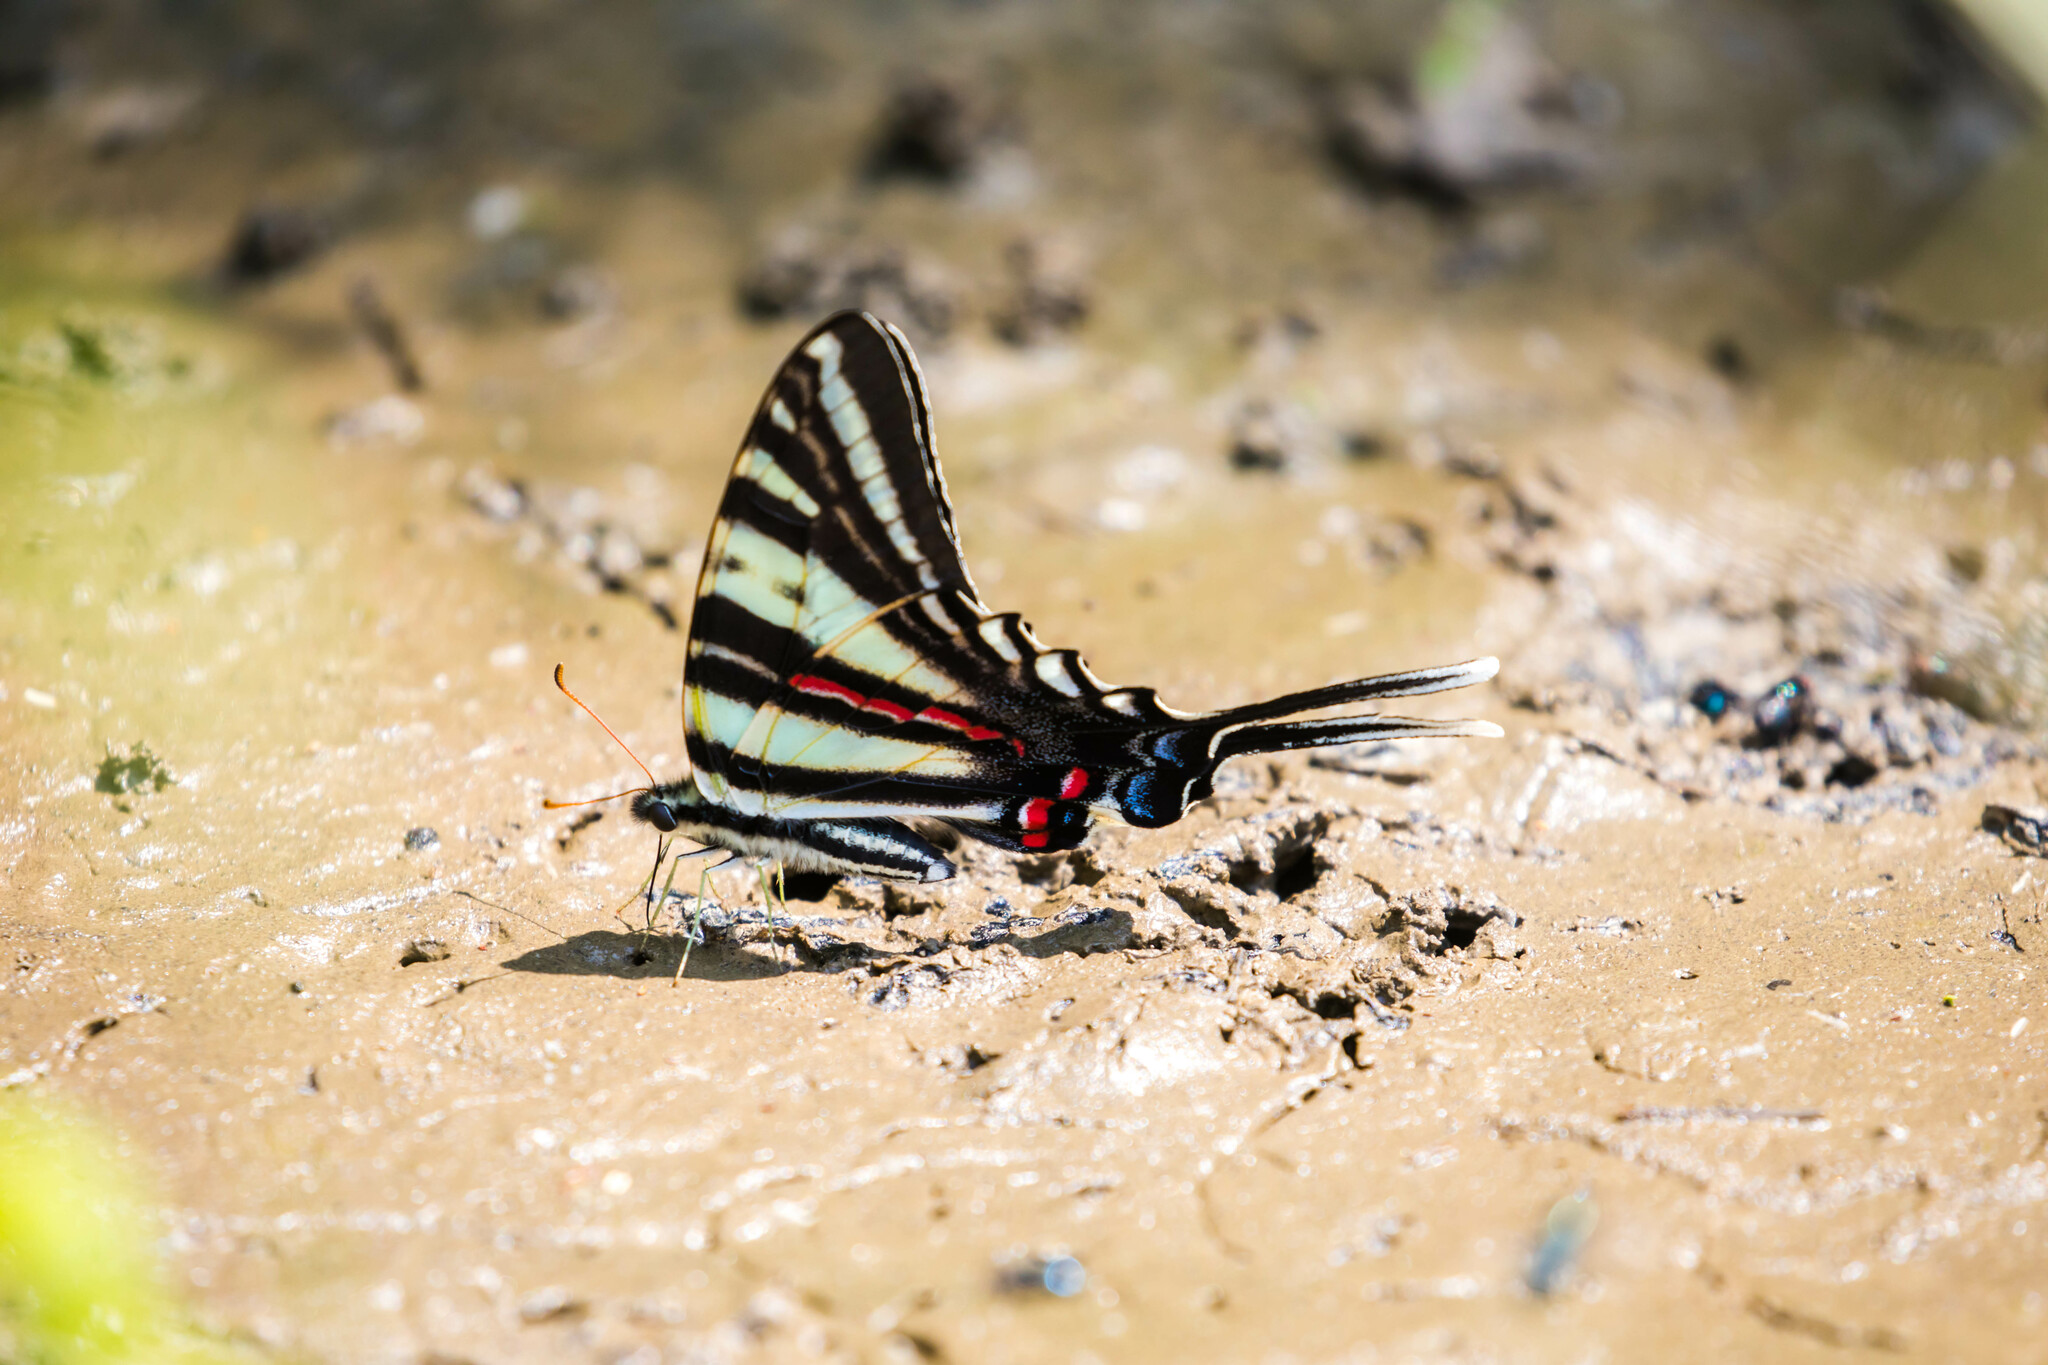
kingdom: Animalia
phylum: Arthropoda
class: Insecta
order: Lepidoptera
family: Papilionidae
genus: Protographium
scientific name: Protographium marcellus
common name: Zebra swallowtail
